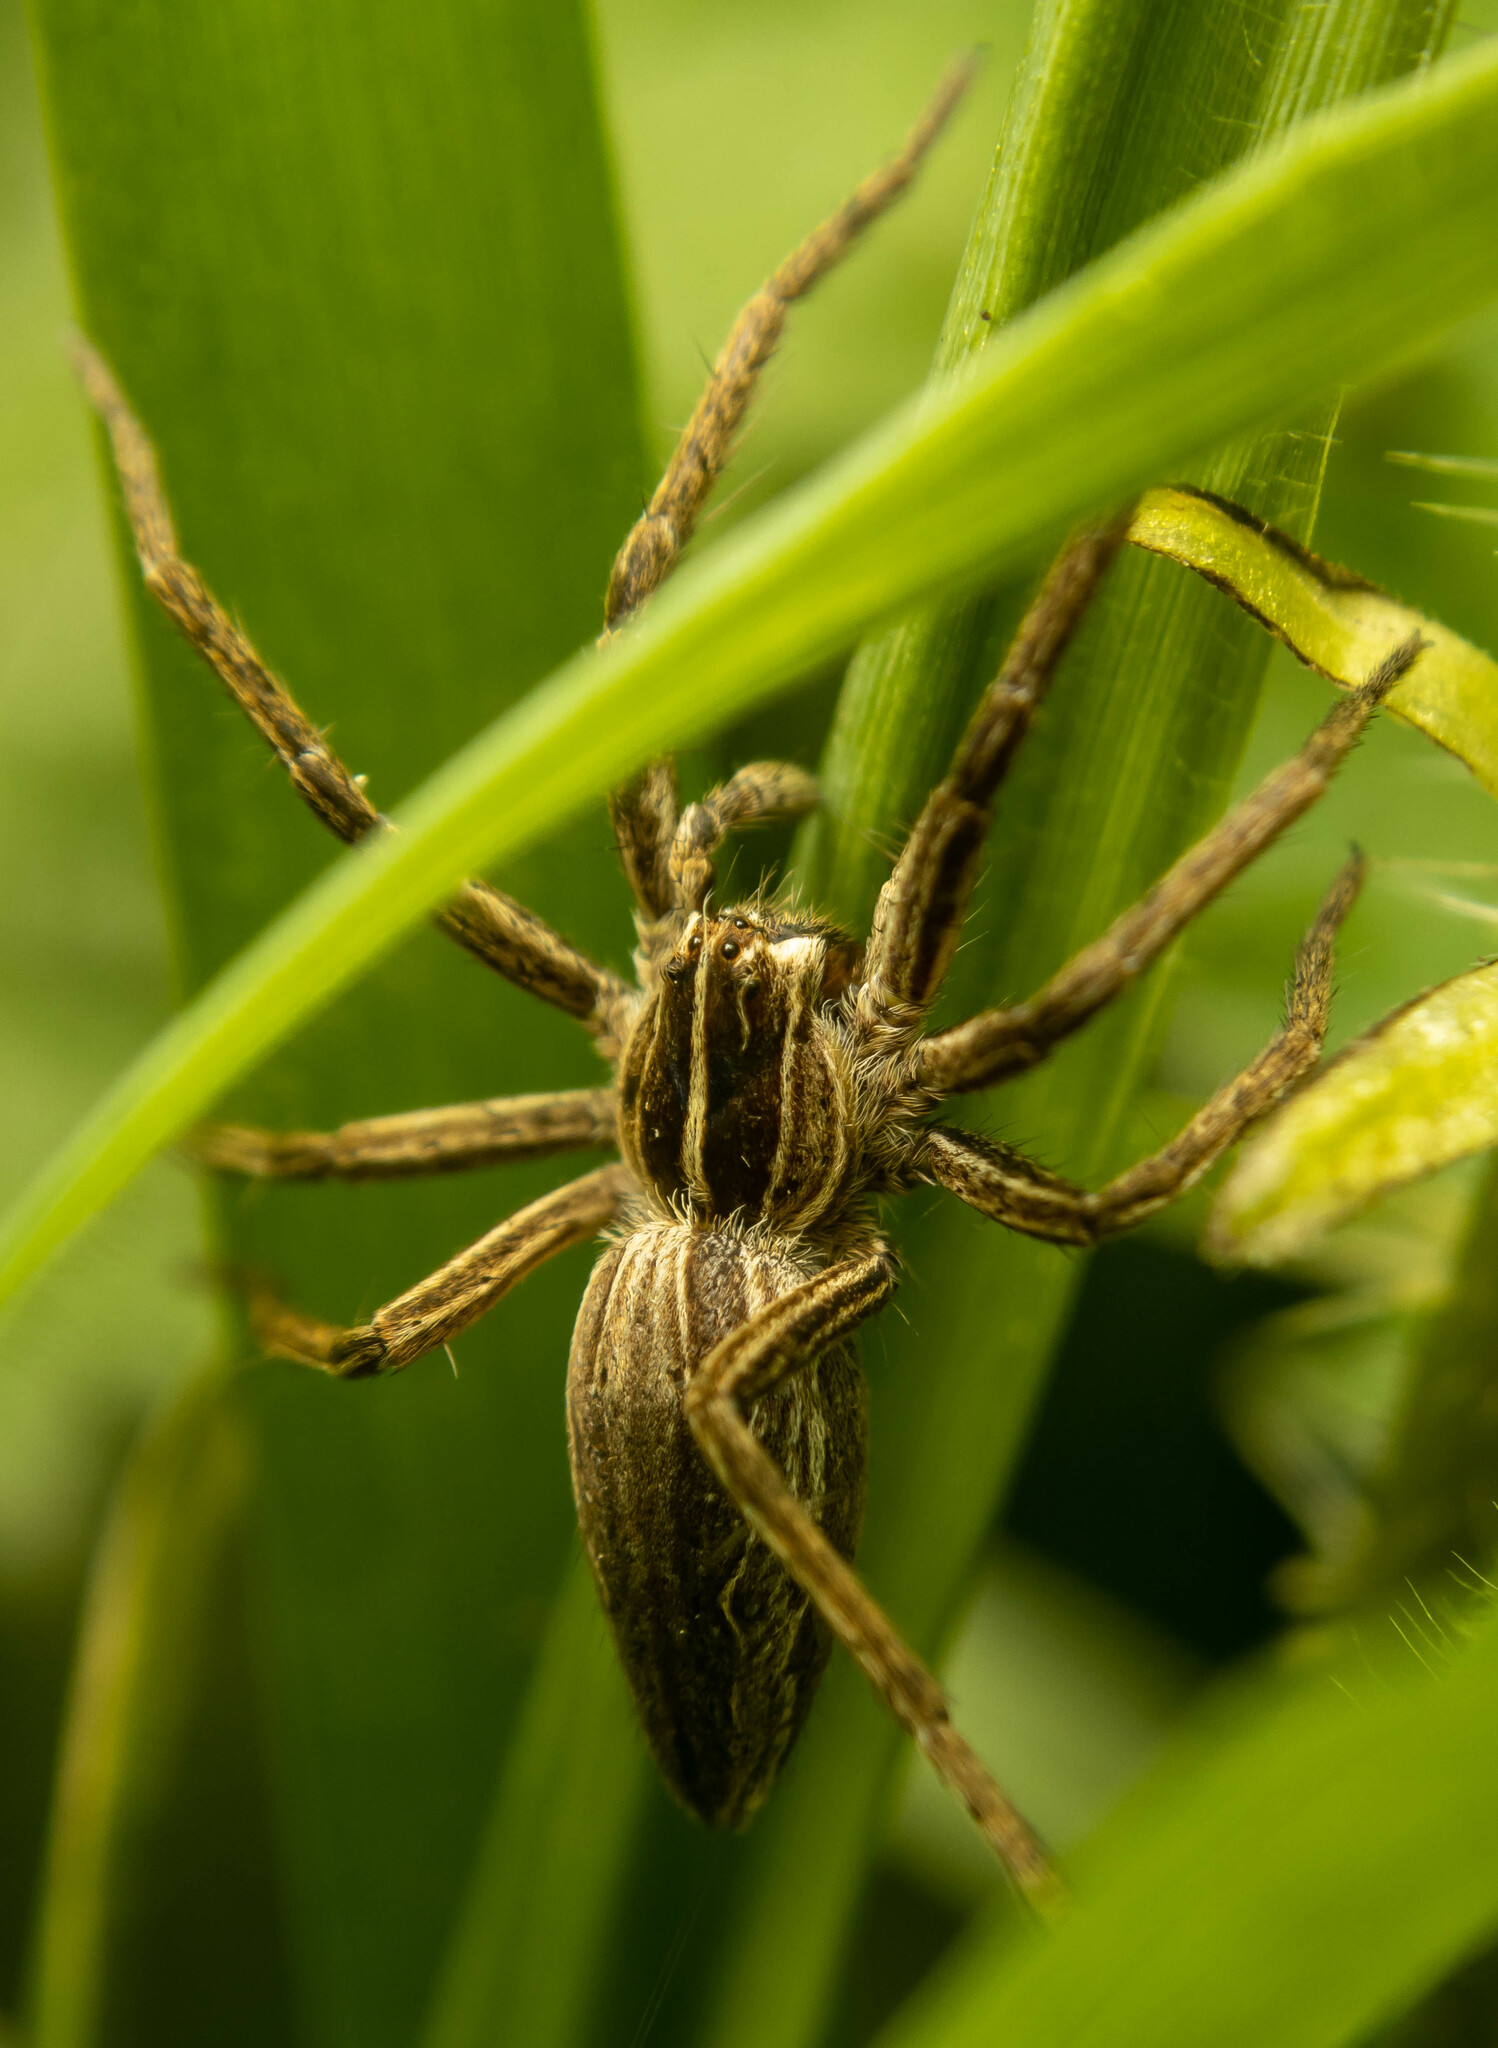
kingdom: Animalia
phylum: Arthropoda
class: Arachnida
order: Araneae
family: Pisauridae
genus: Pisaura
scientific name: Pisaura mirabilis
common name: Tent spider
